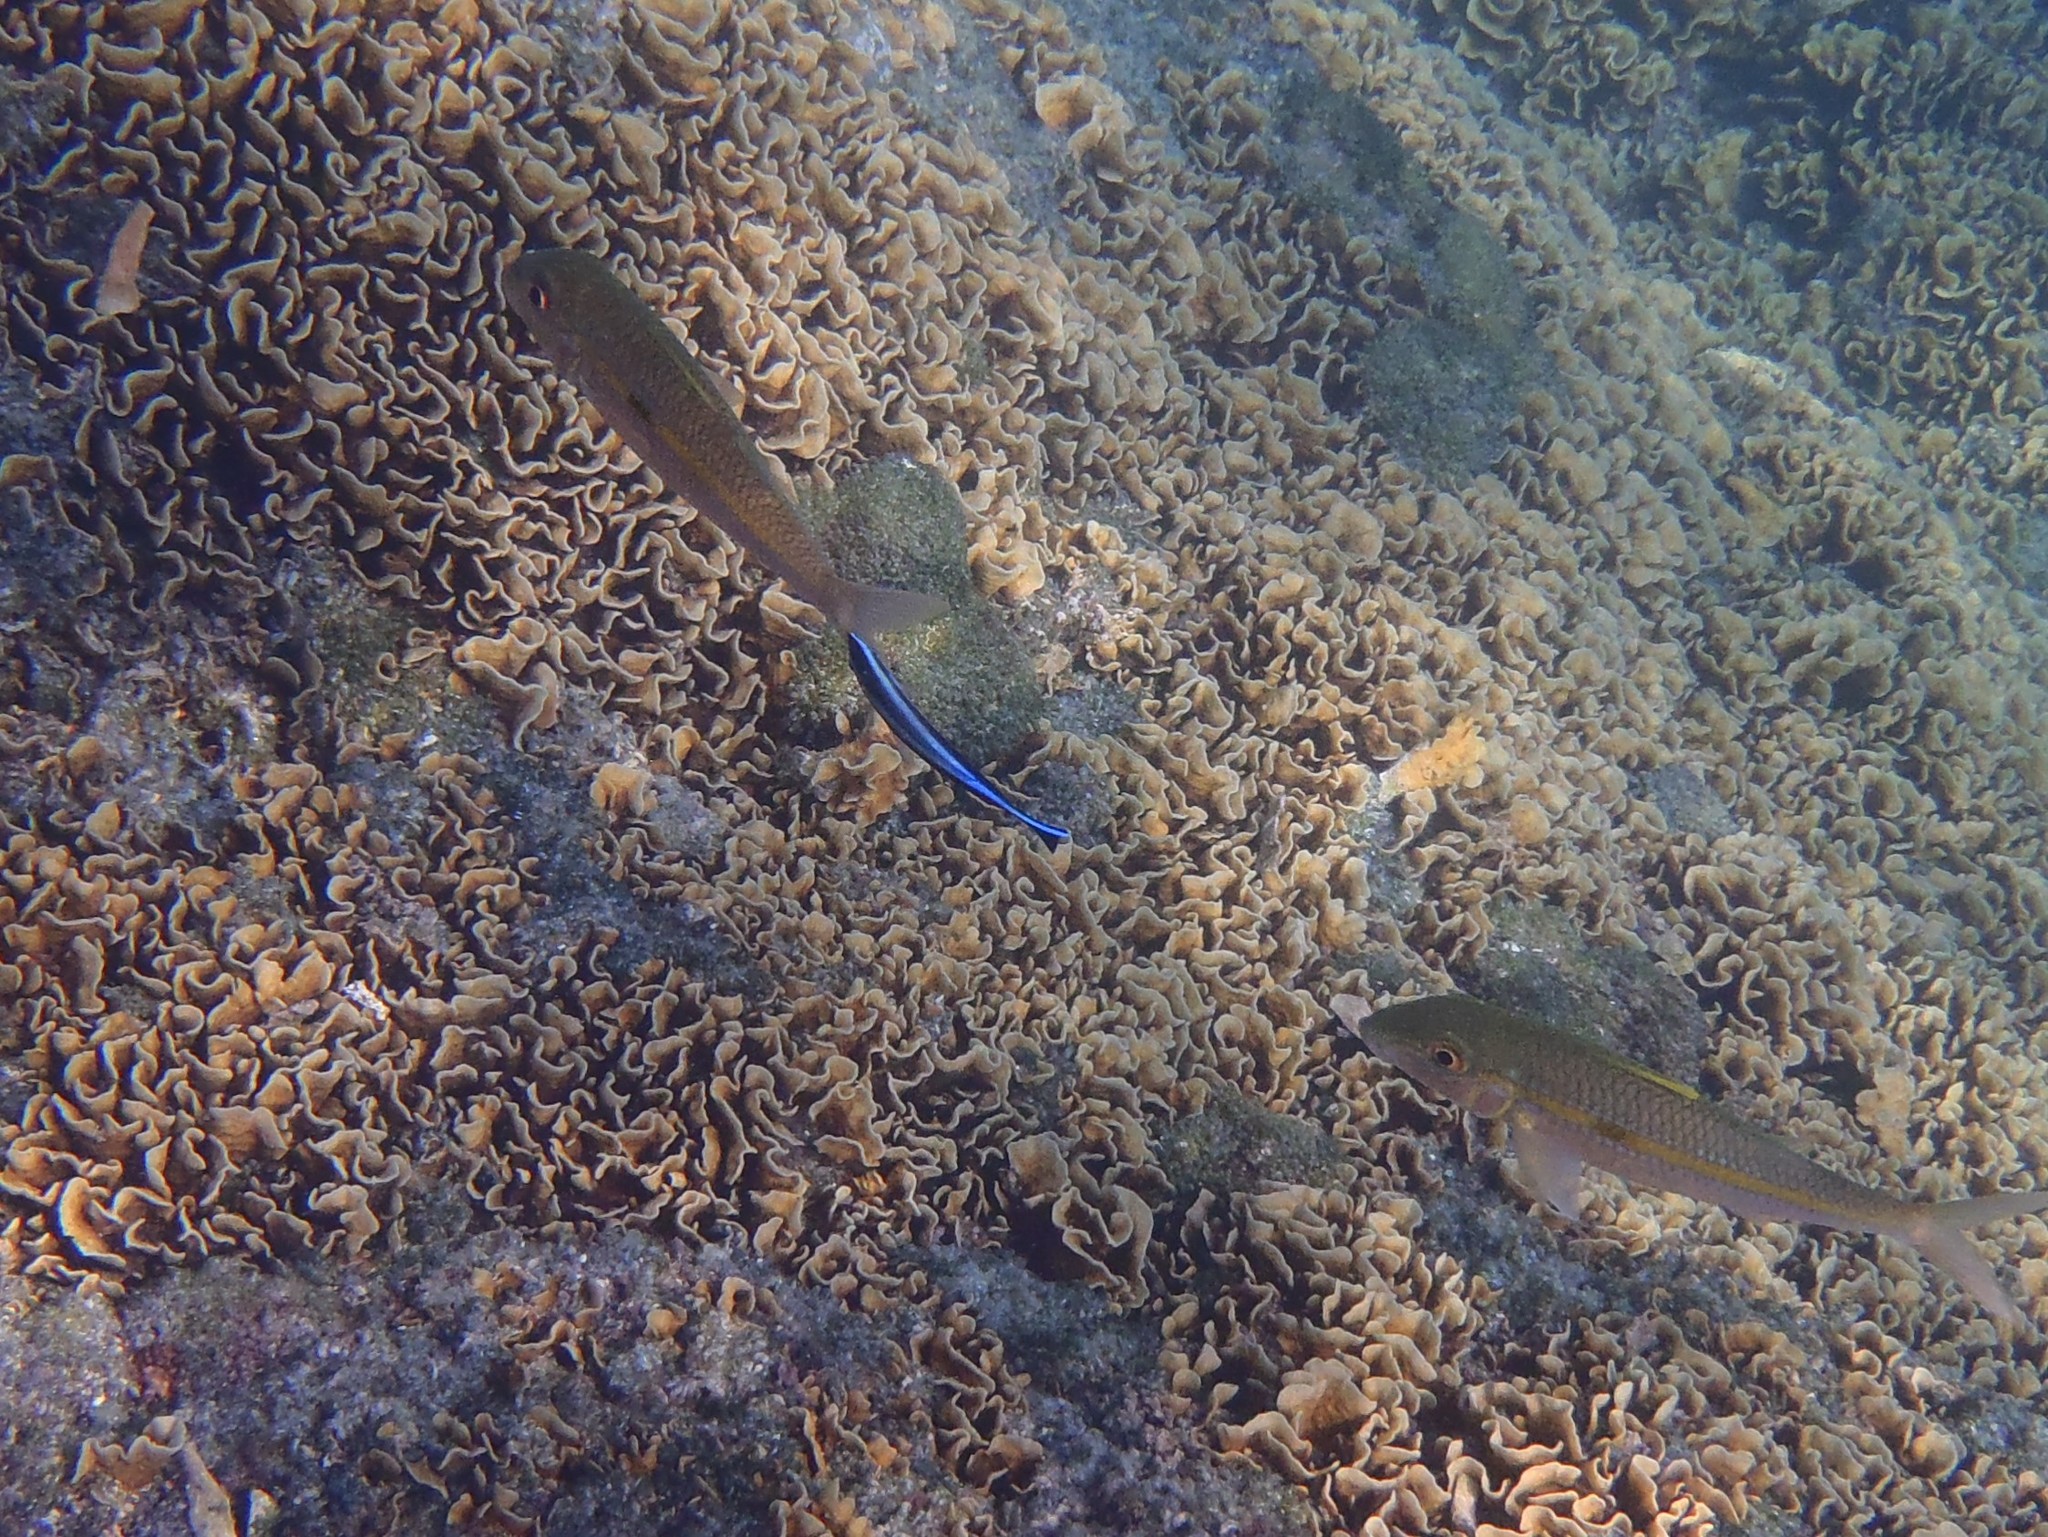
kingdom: Animalia
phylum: Chordata
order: Perciformes
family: Labridae
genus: Labroides
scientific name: Labroides dimidiatus
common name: Blue diesel wrasse
